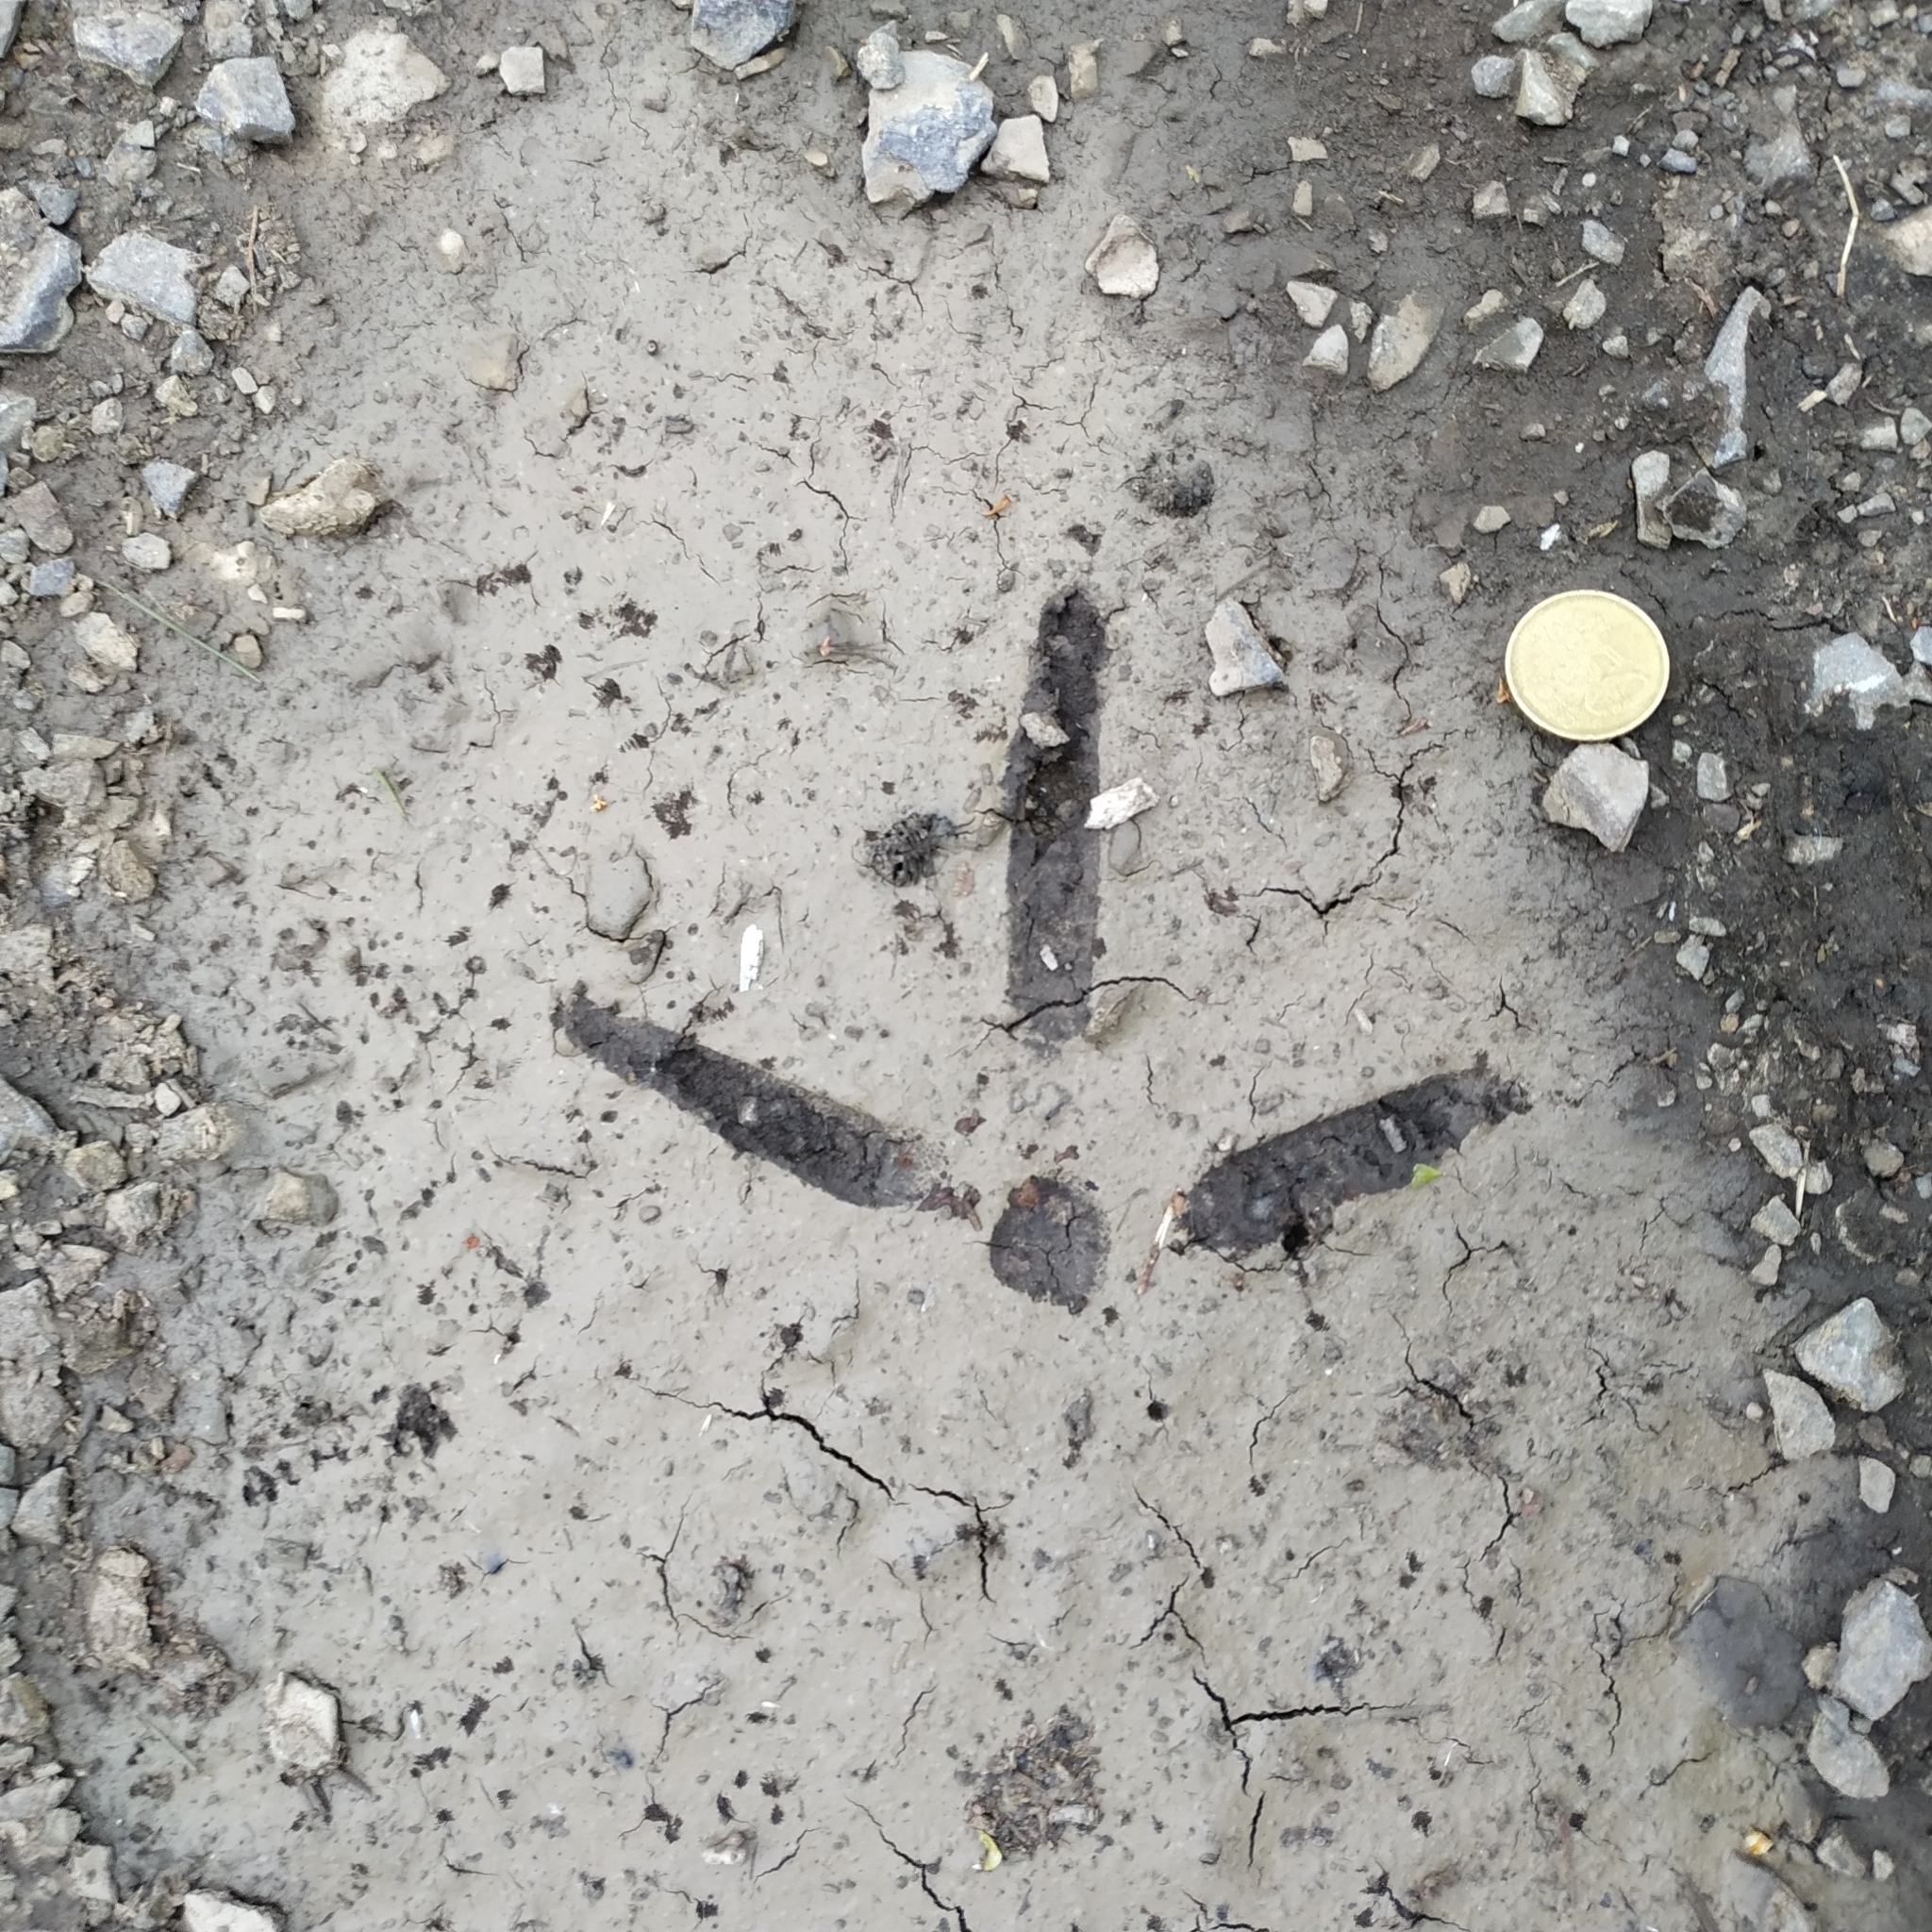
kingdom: Animalia
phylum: Chordata
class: Aves
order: Gruiformes
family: Gruidae
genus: Grus
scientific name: Grus grus
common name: Common crane
